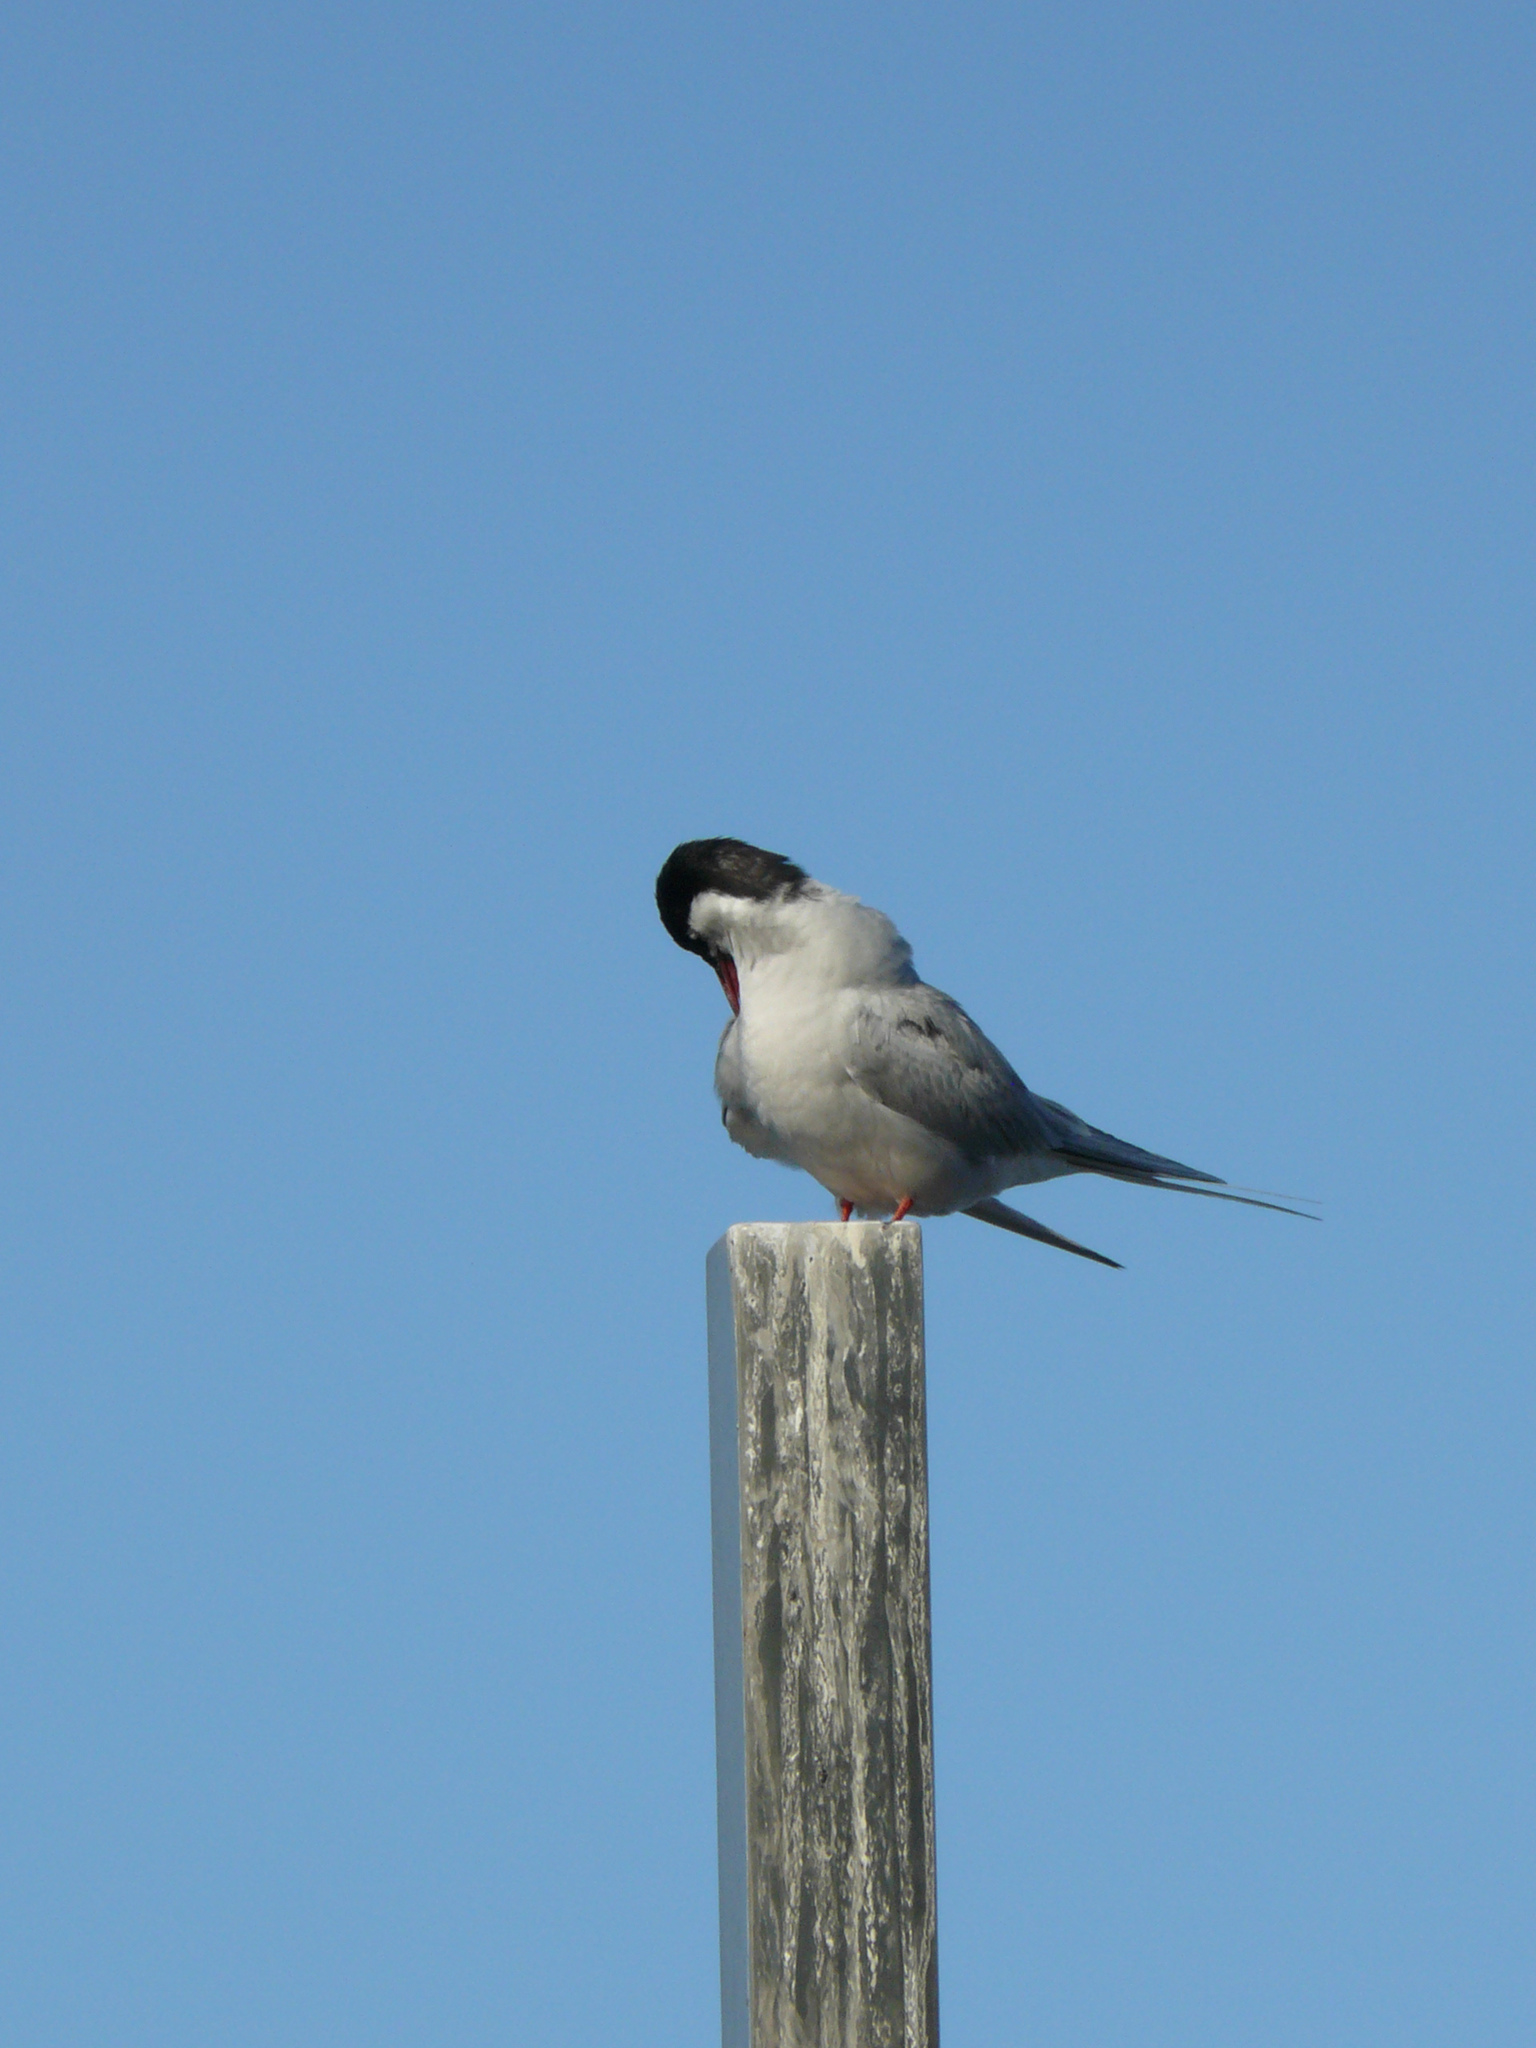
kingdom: Animalia
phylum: Chordata
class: Aves
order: Charadriiformes
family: Laridae
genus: Sterna
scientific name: Sterna paradisaea
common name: Arctic tern
